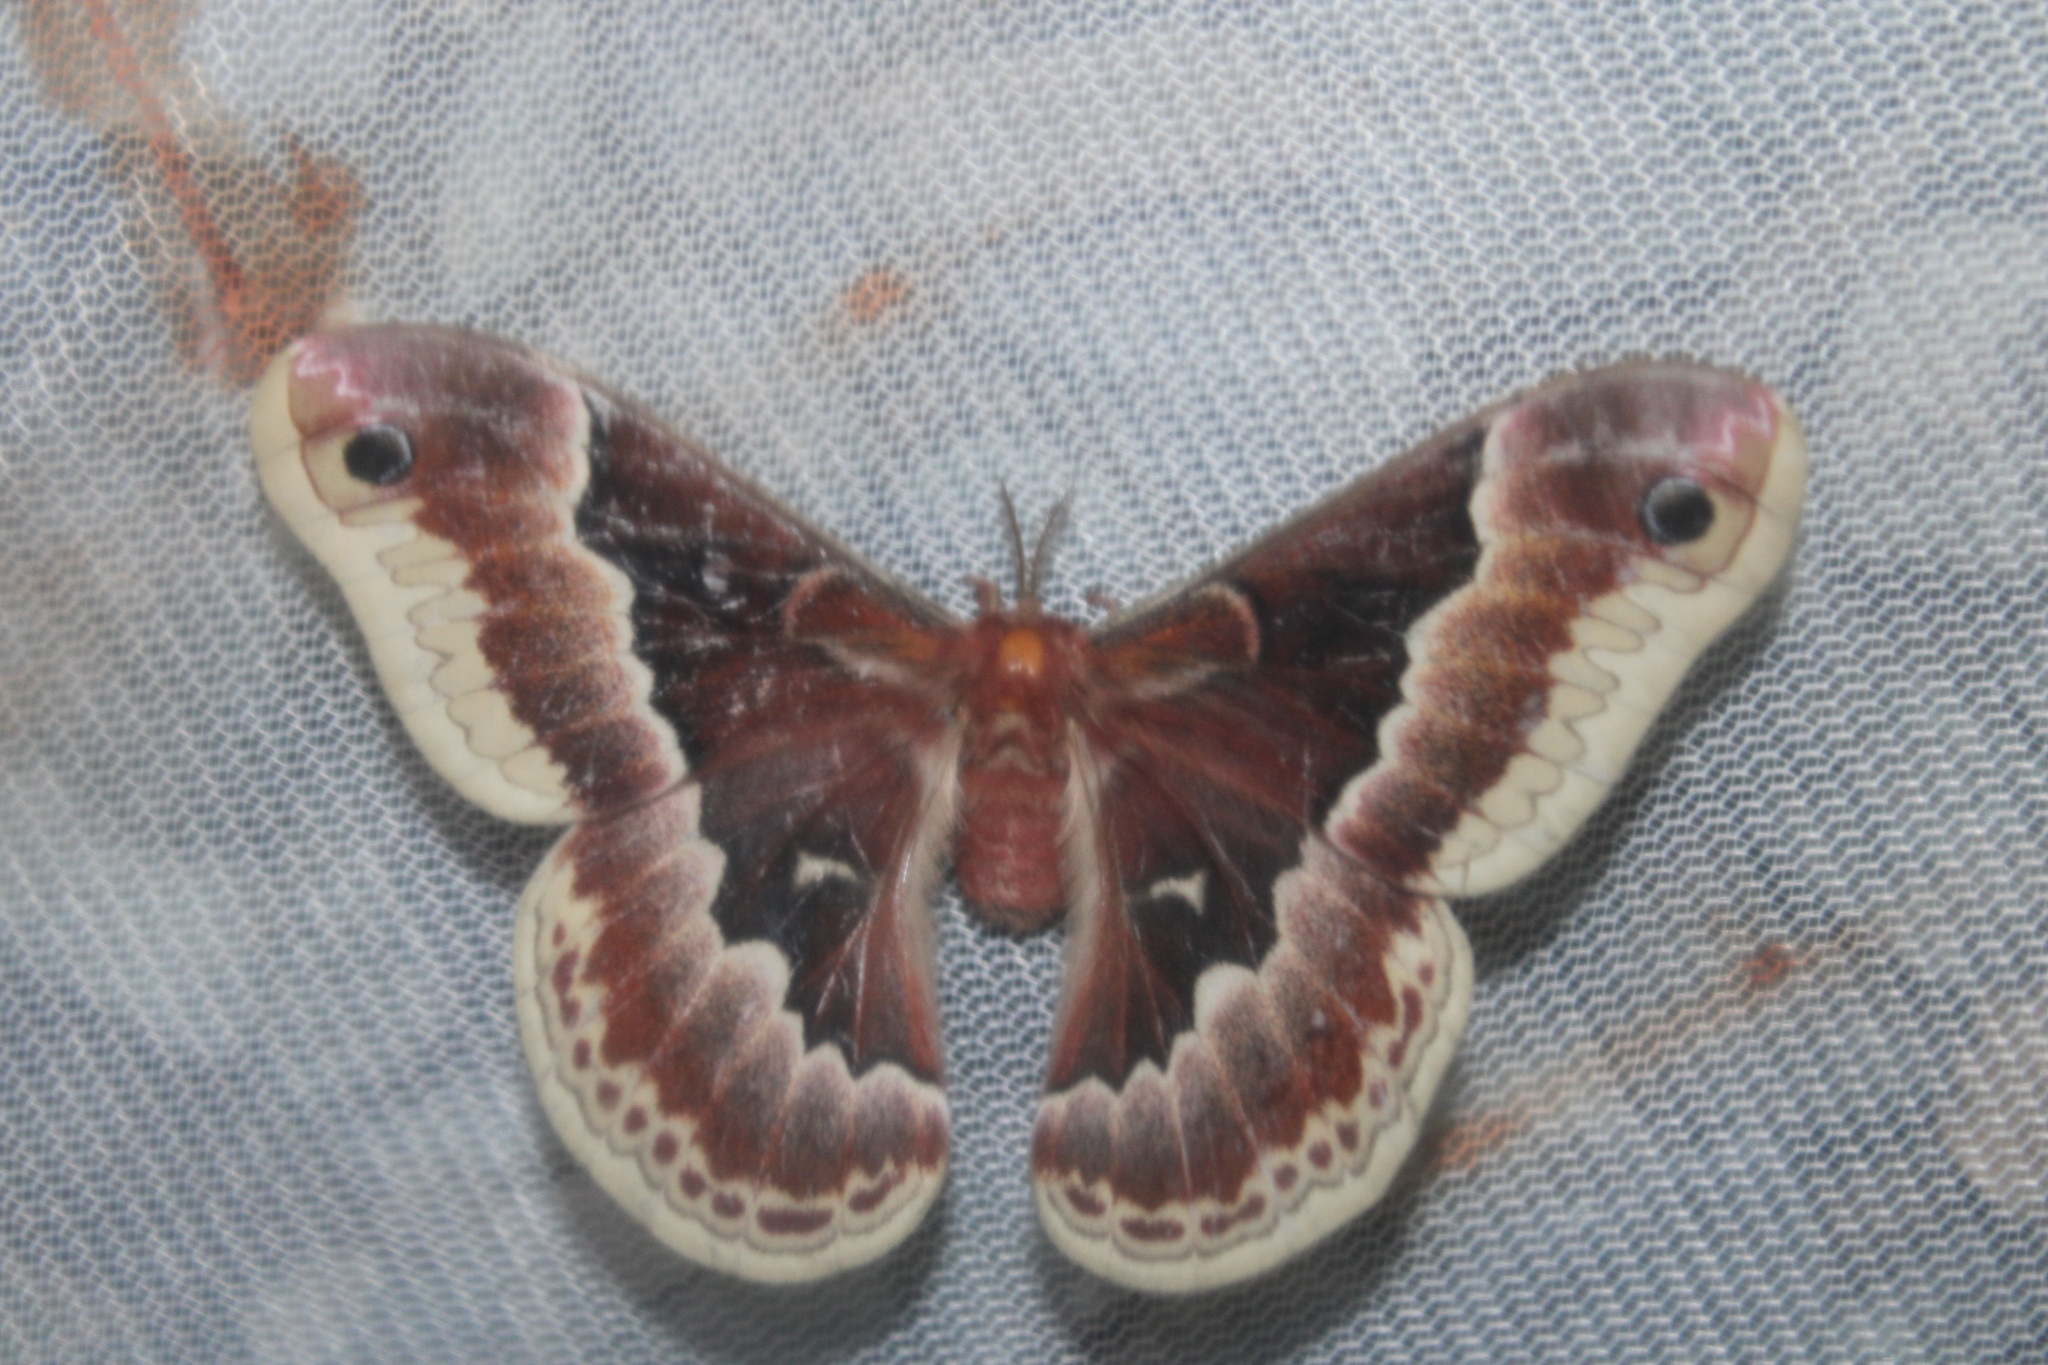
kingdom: Animalia
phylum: Arthropoda
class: Insecta
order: Lepidoptera
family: Saturniidae
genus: Callosamia
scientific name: Callosamia promethea
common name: Promethea silkmoth
